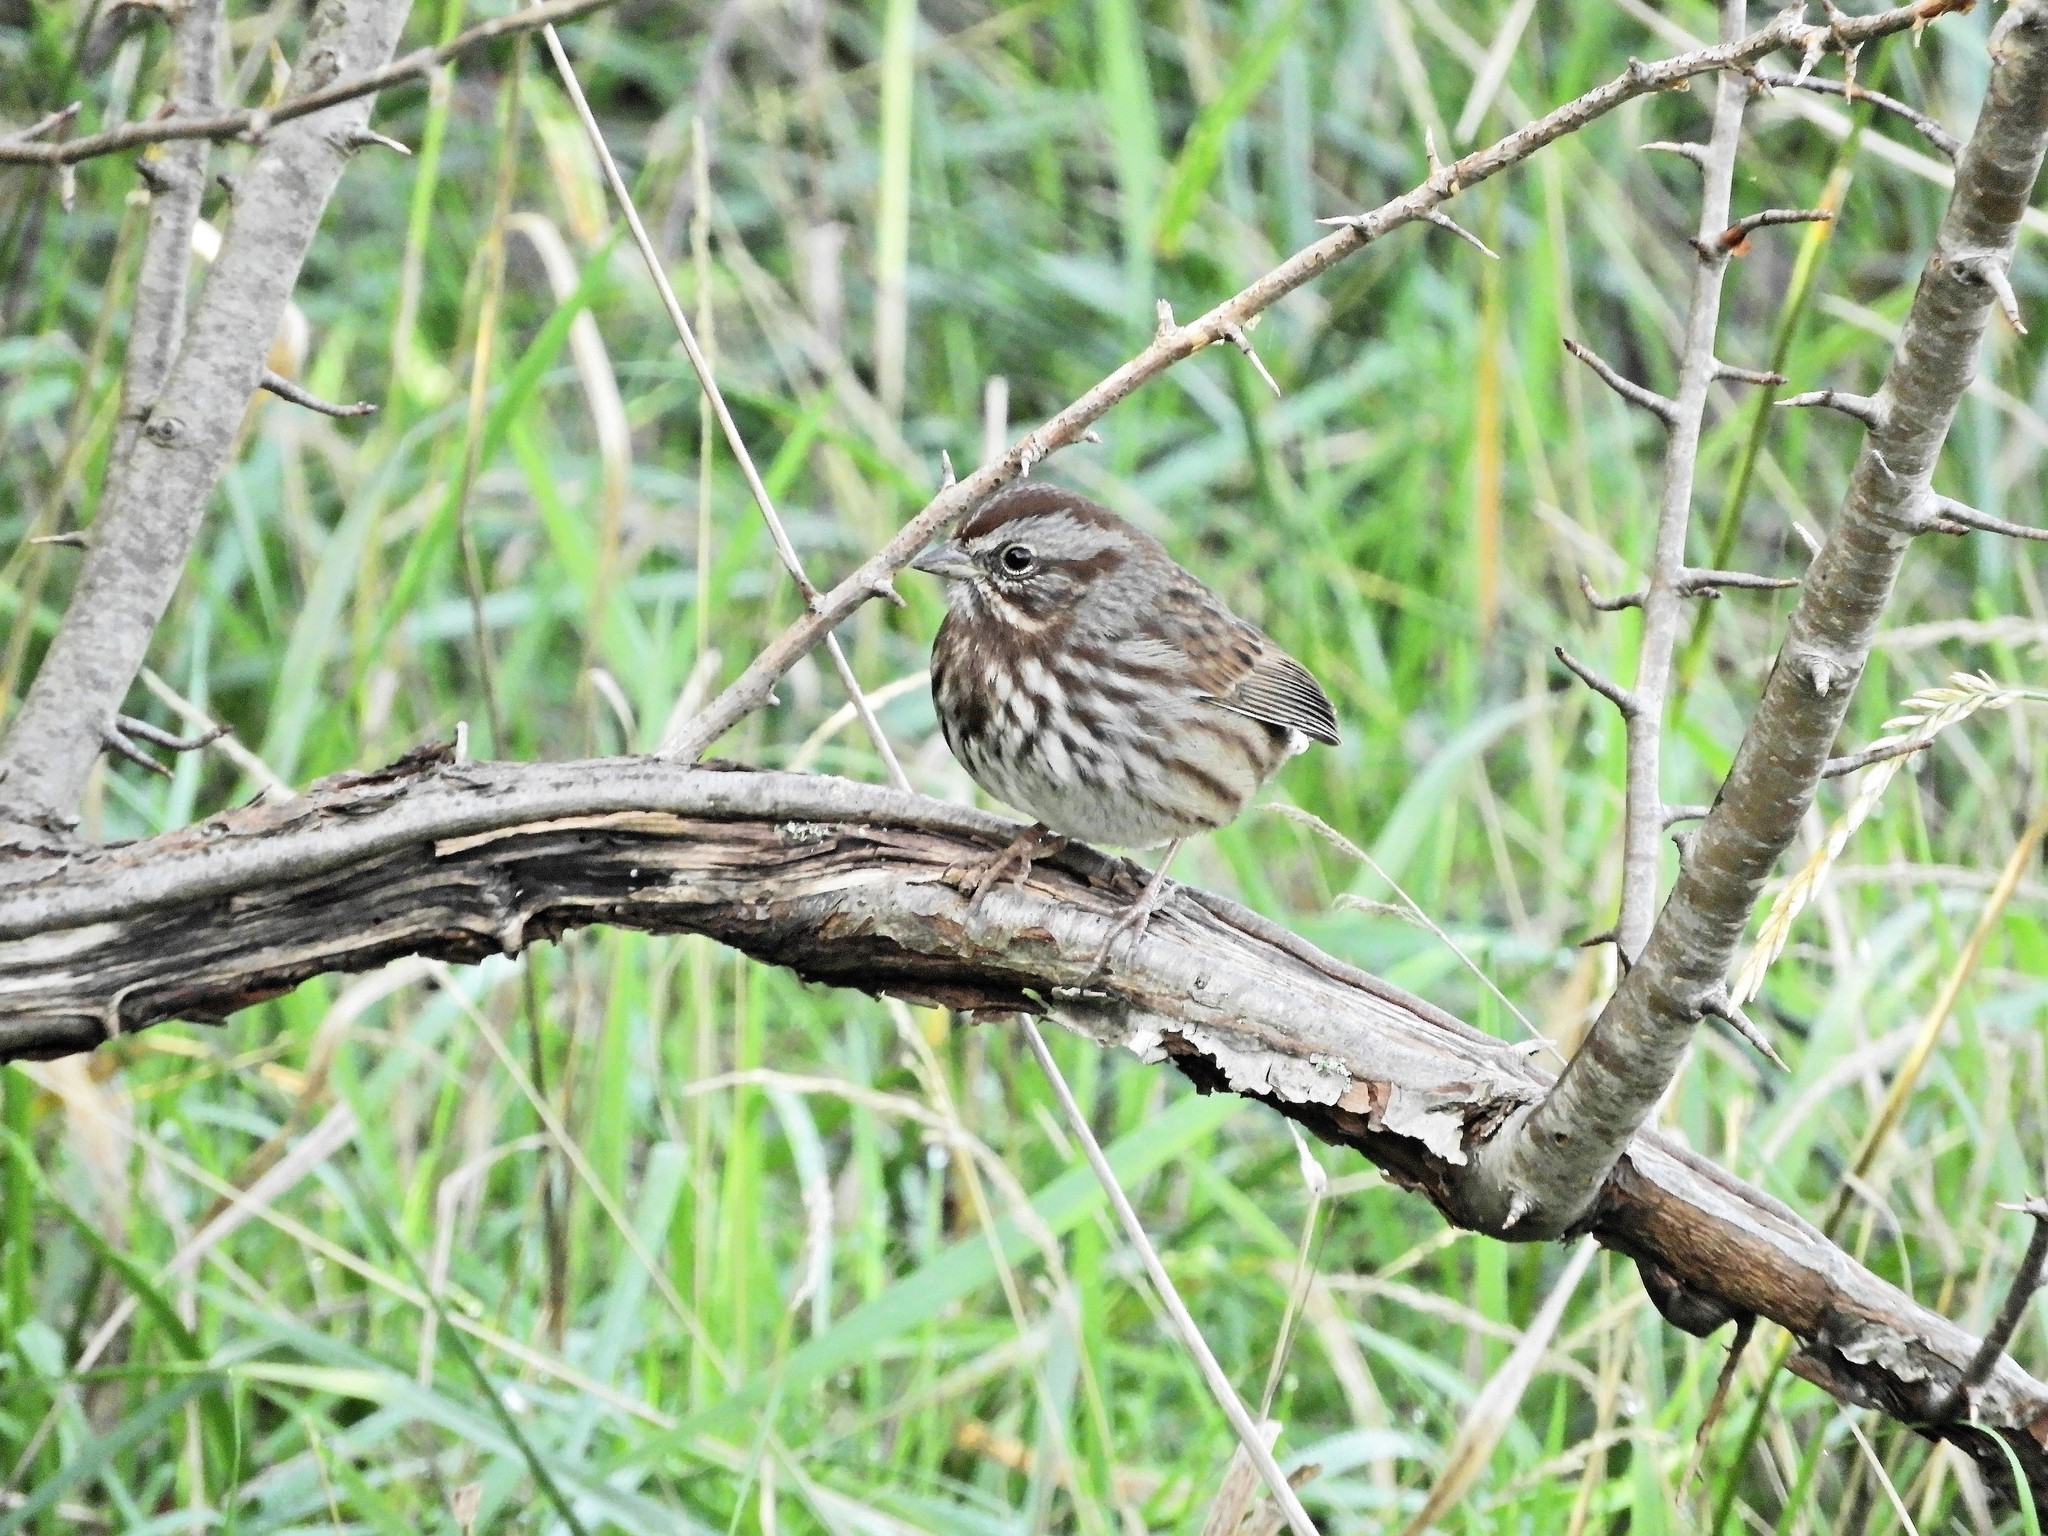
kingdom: Animalia
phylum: Chordata
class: Aves
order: Passeriformes
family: Passerellidae
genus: Melospiza
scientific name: Melospiza melodia
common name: Song sparrow
